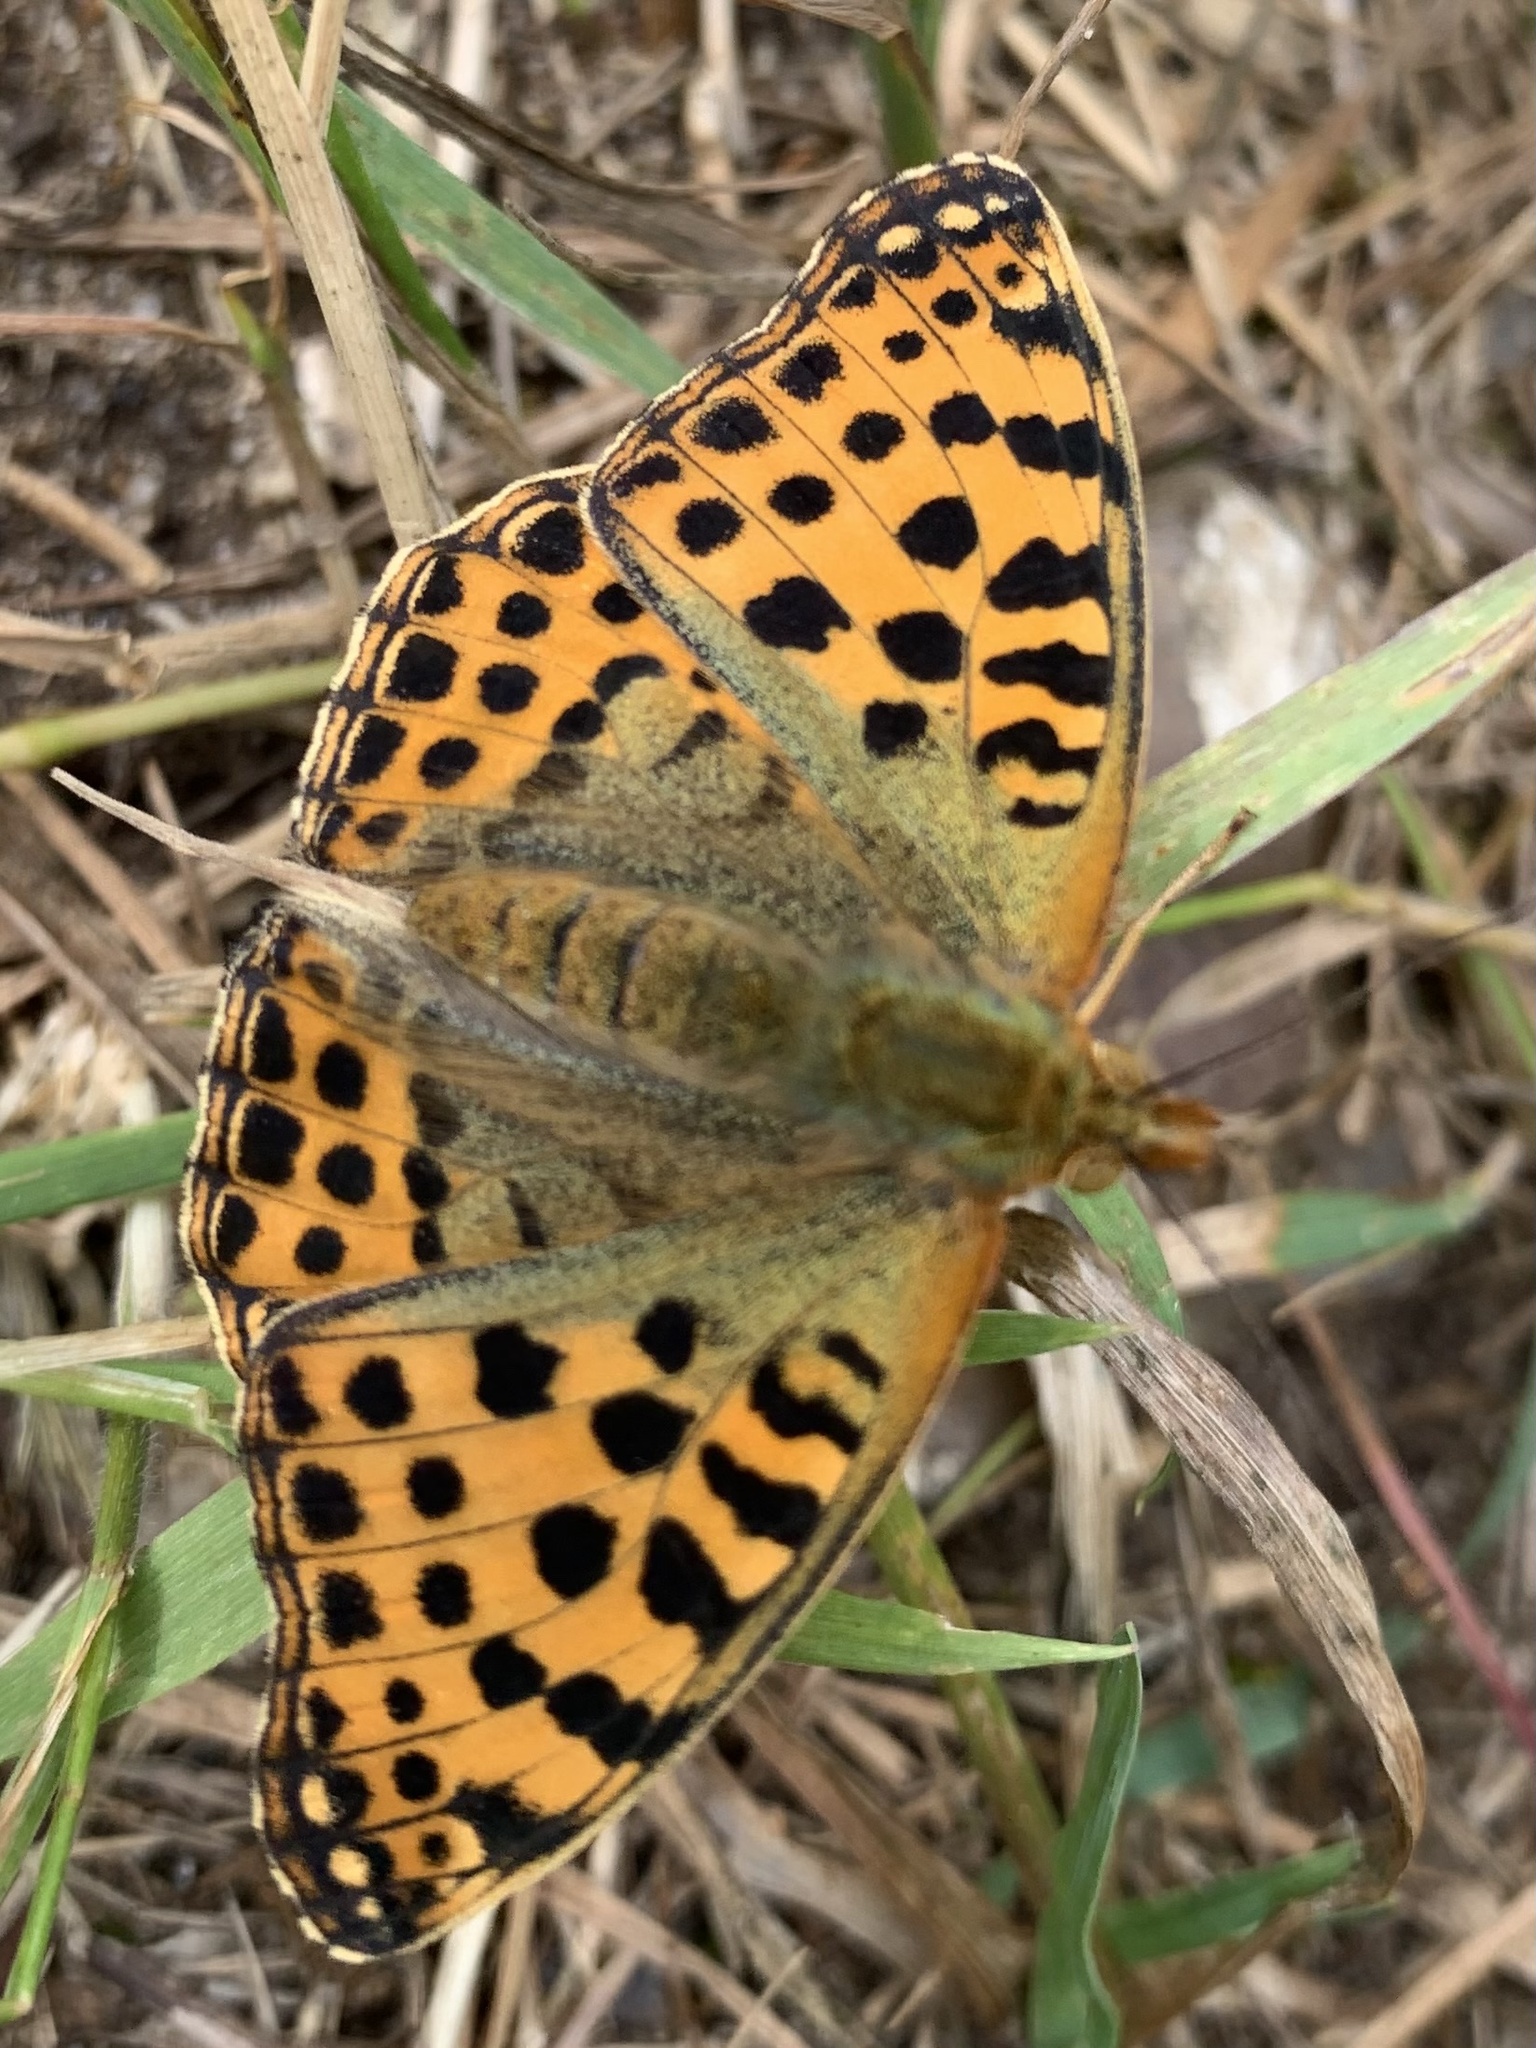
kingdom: Animalia
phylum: Arthropoda
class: Insecta
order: Lepidoptera
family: Nymphalidae
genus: Issoria
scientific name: Issoria lathonia
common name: Queen of spain fritillary
